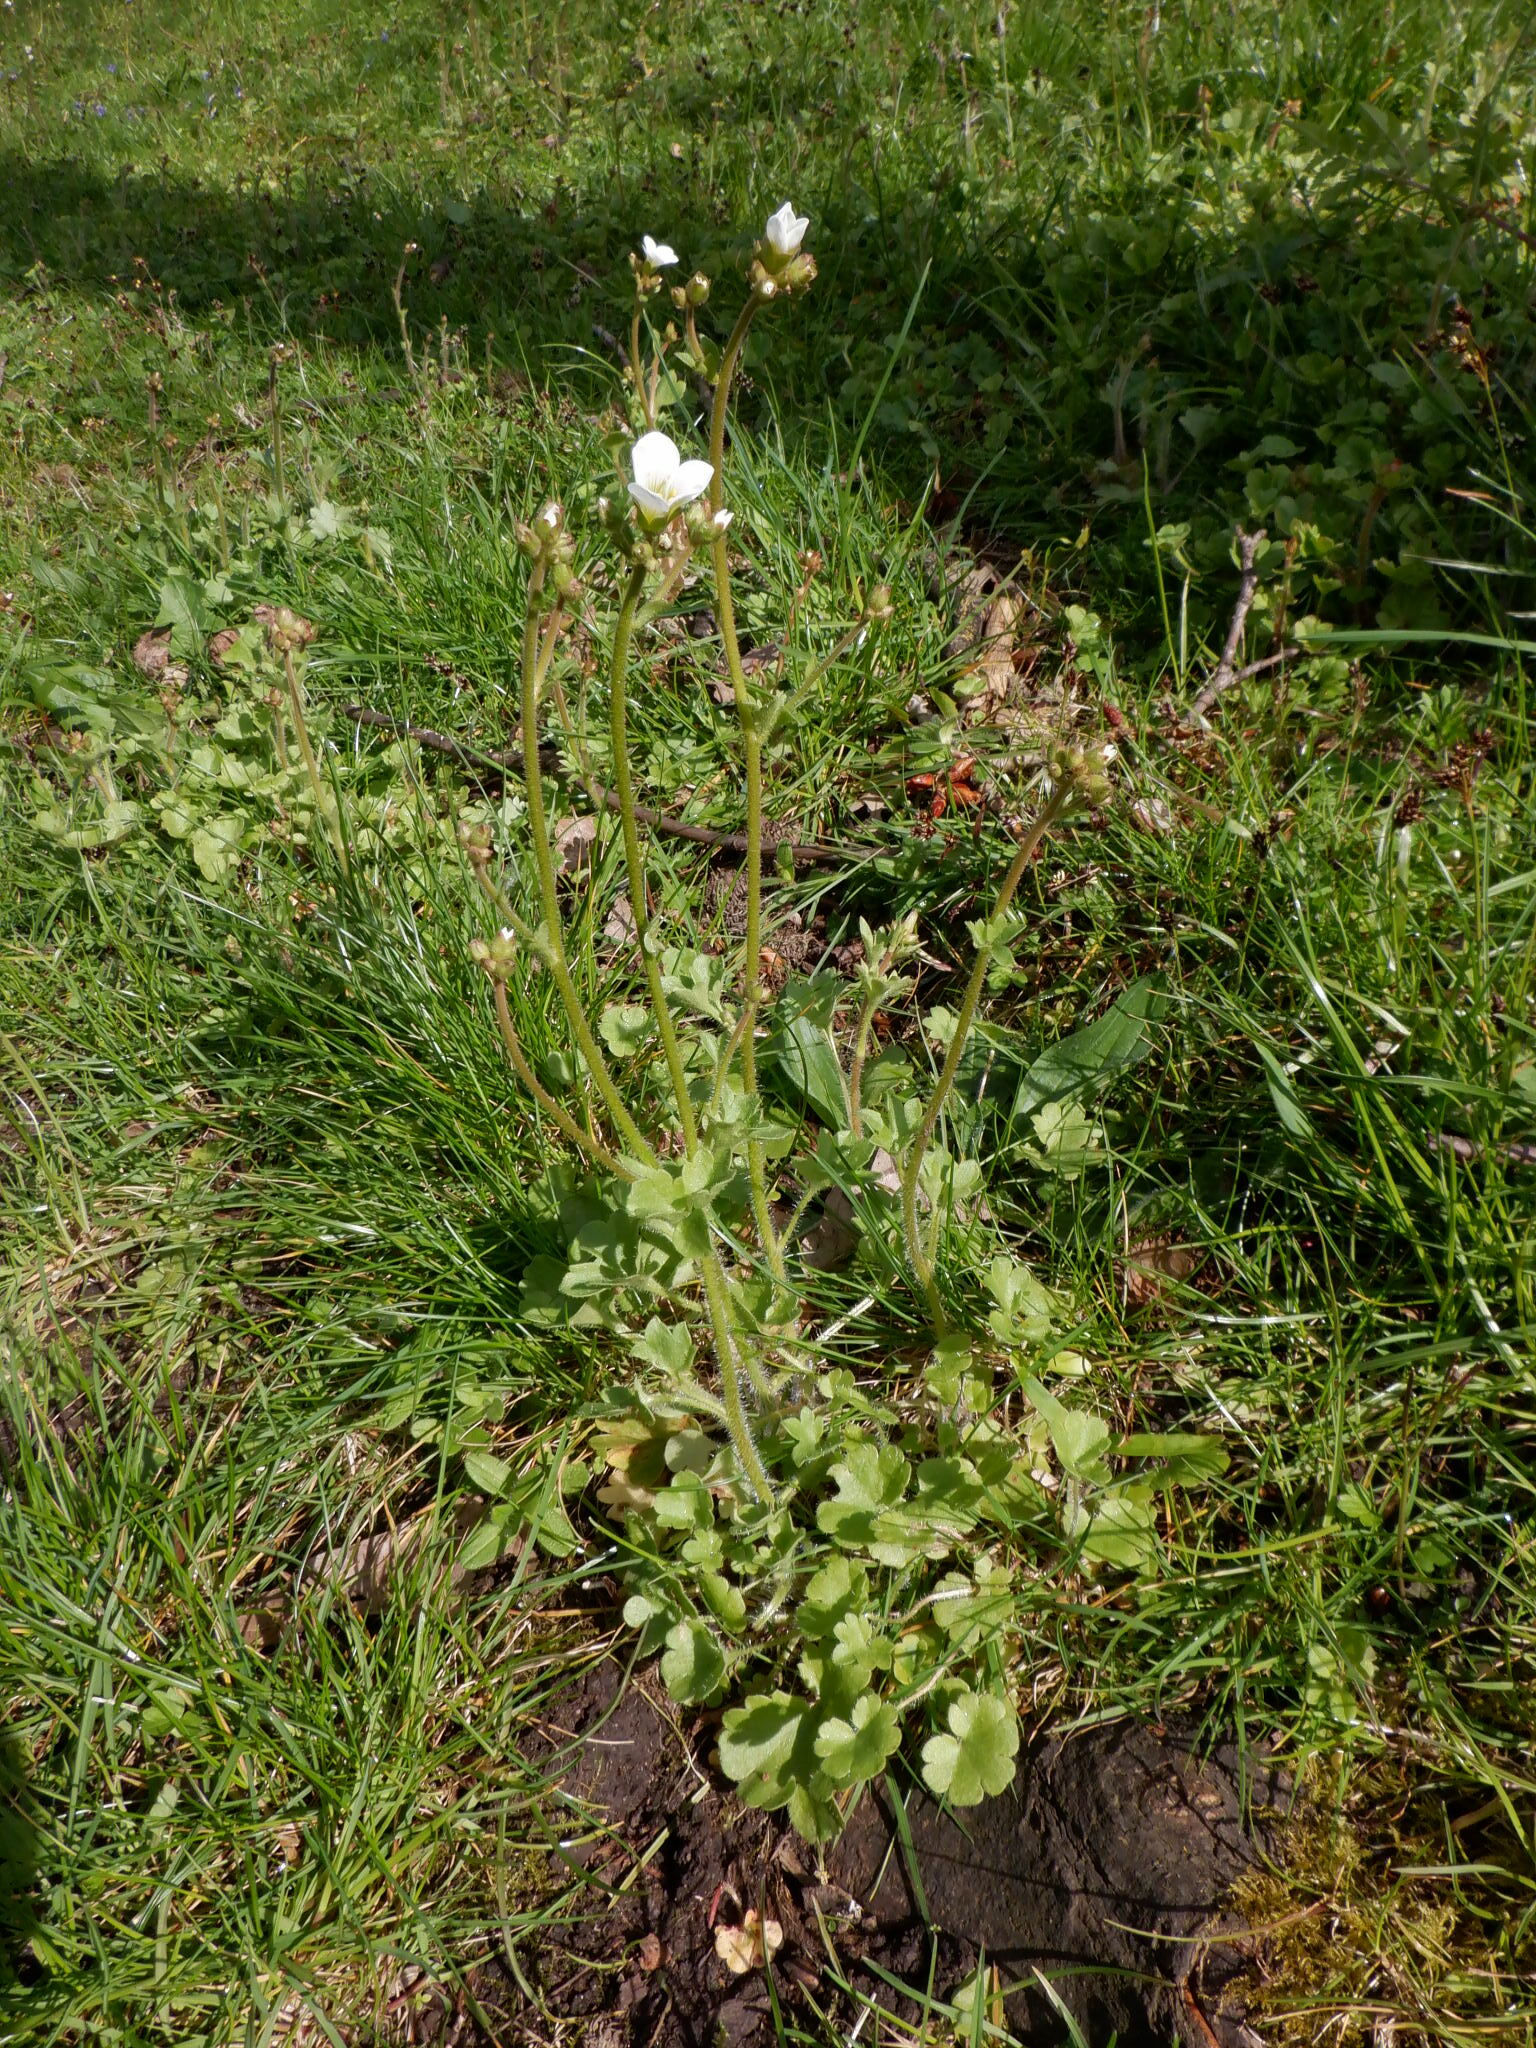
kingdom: Plantae
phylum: Tracheophyta
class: Magnoliopsida
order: Saxifragales
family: Saxifragaceae
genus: Saxifraga
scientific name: Saxifraga granulata
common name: Meadow saxifrage
